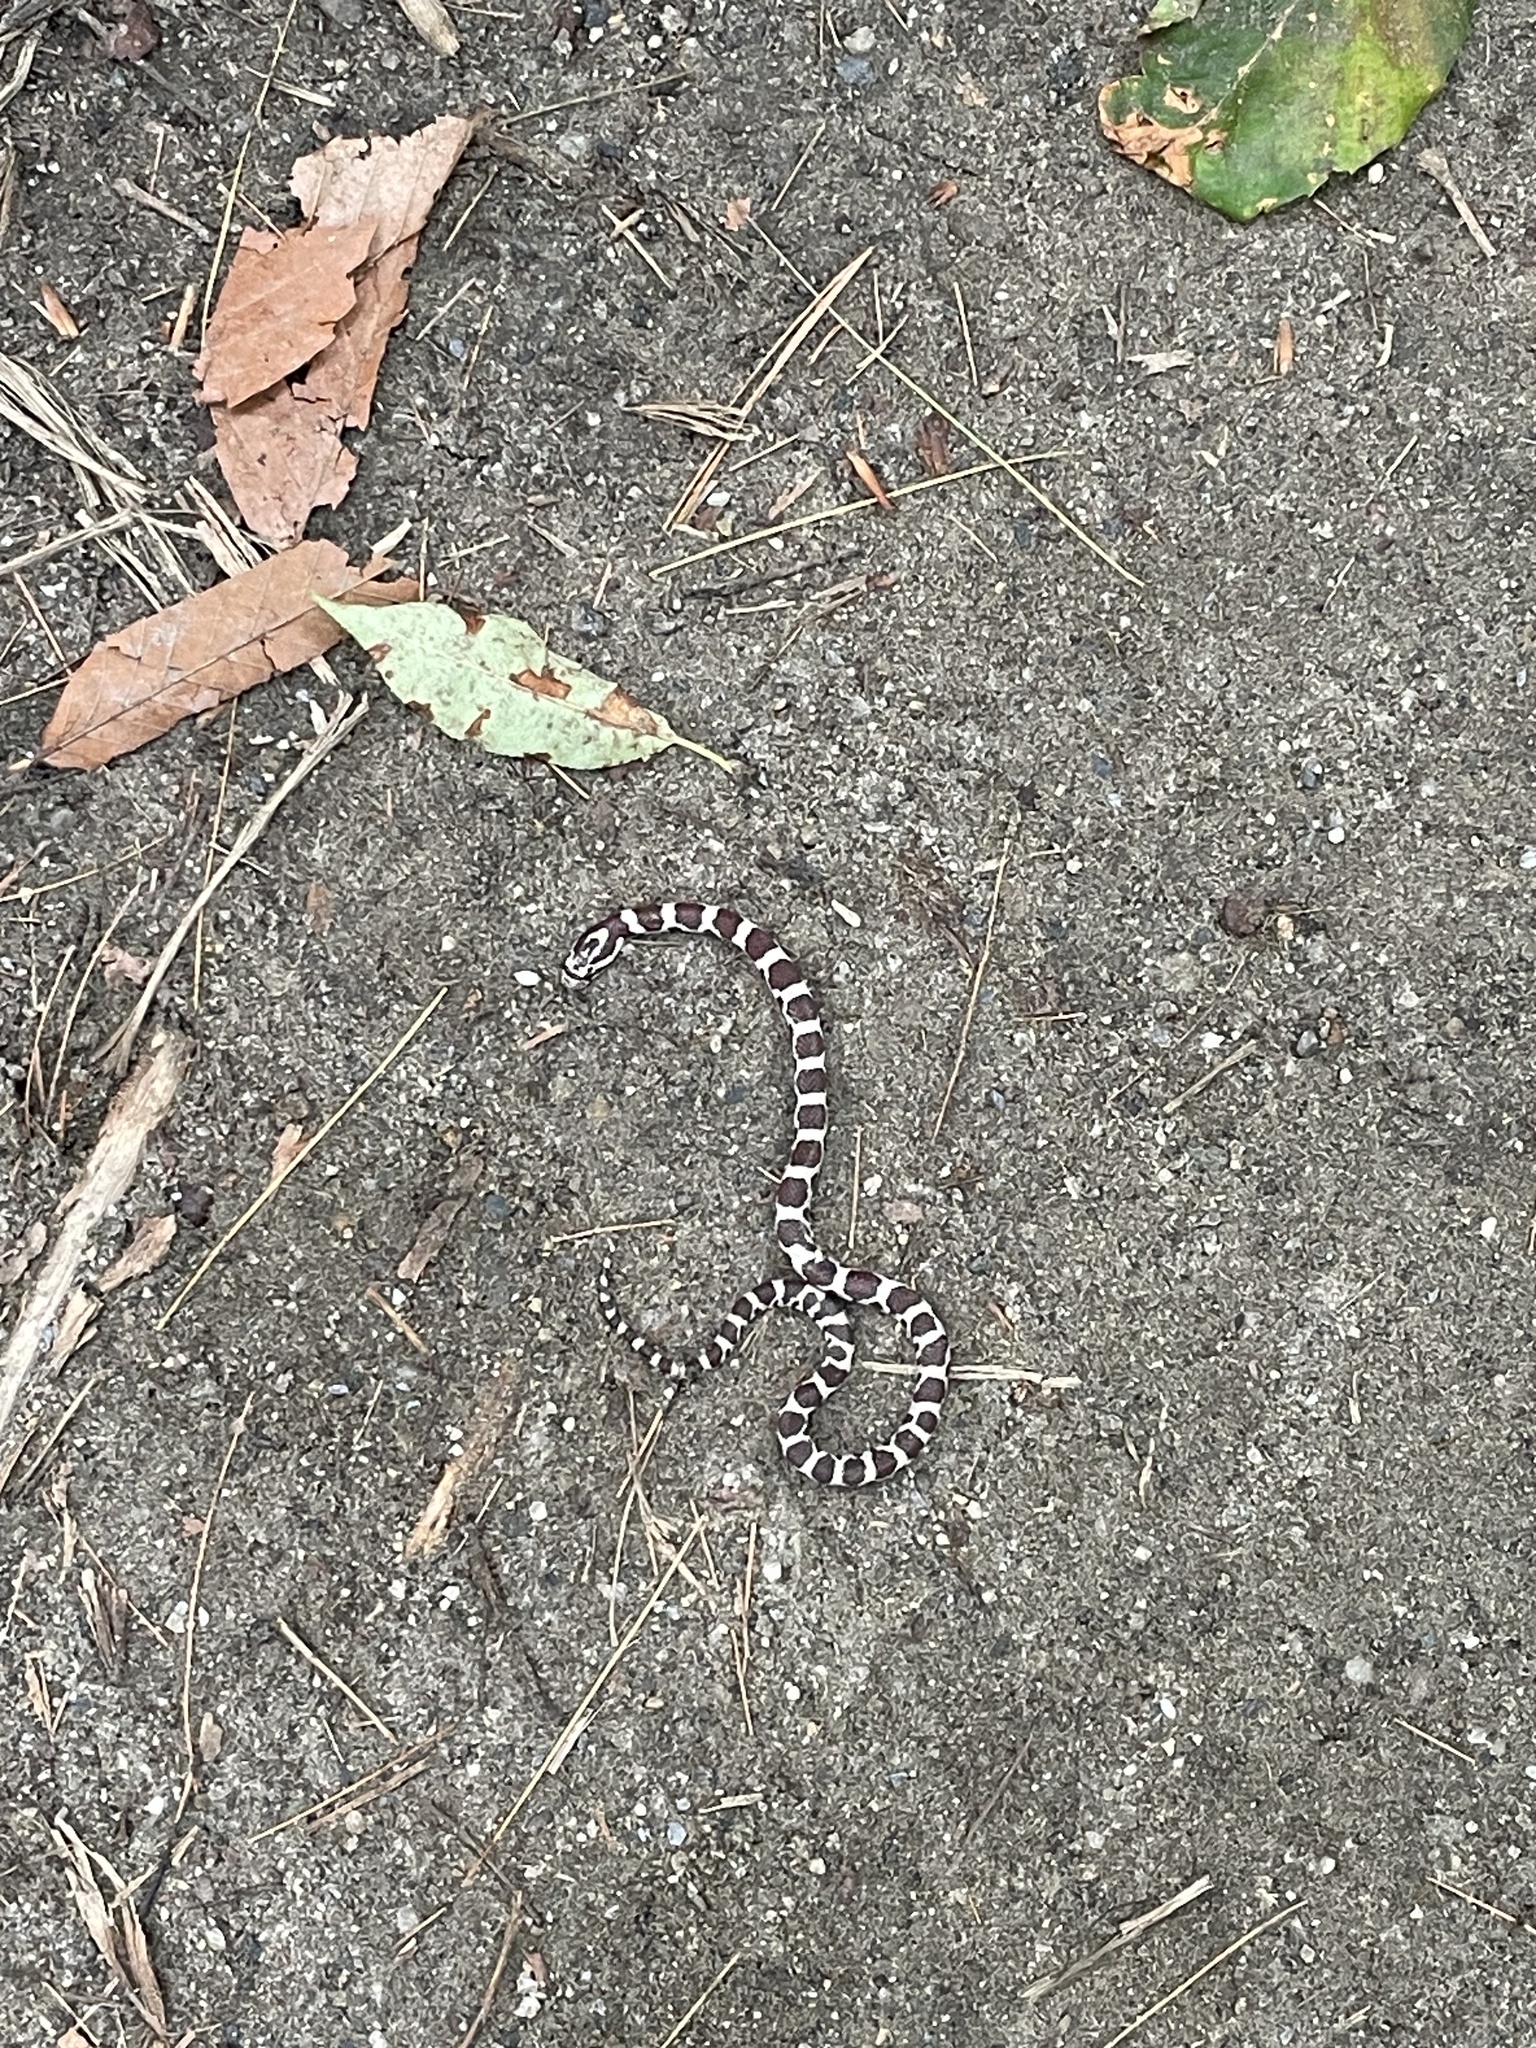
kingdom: Animalia
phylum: Chordata
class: Squamata
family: Colubridae
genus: Lampropeltis
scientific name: Lampropeltis triangulum
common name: Eastern milksnake
